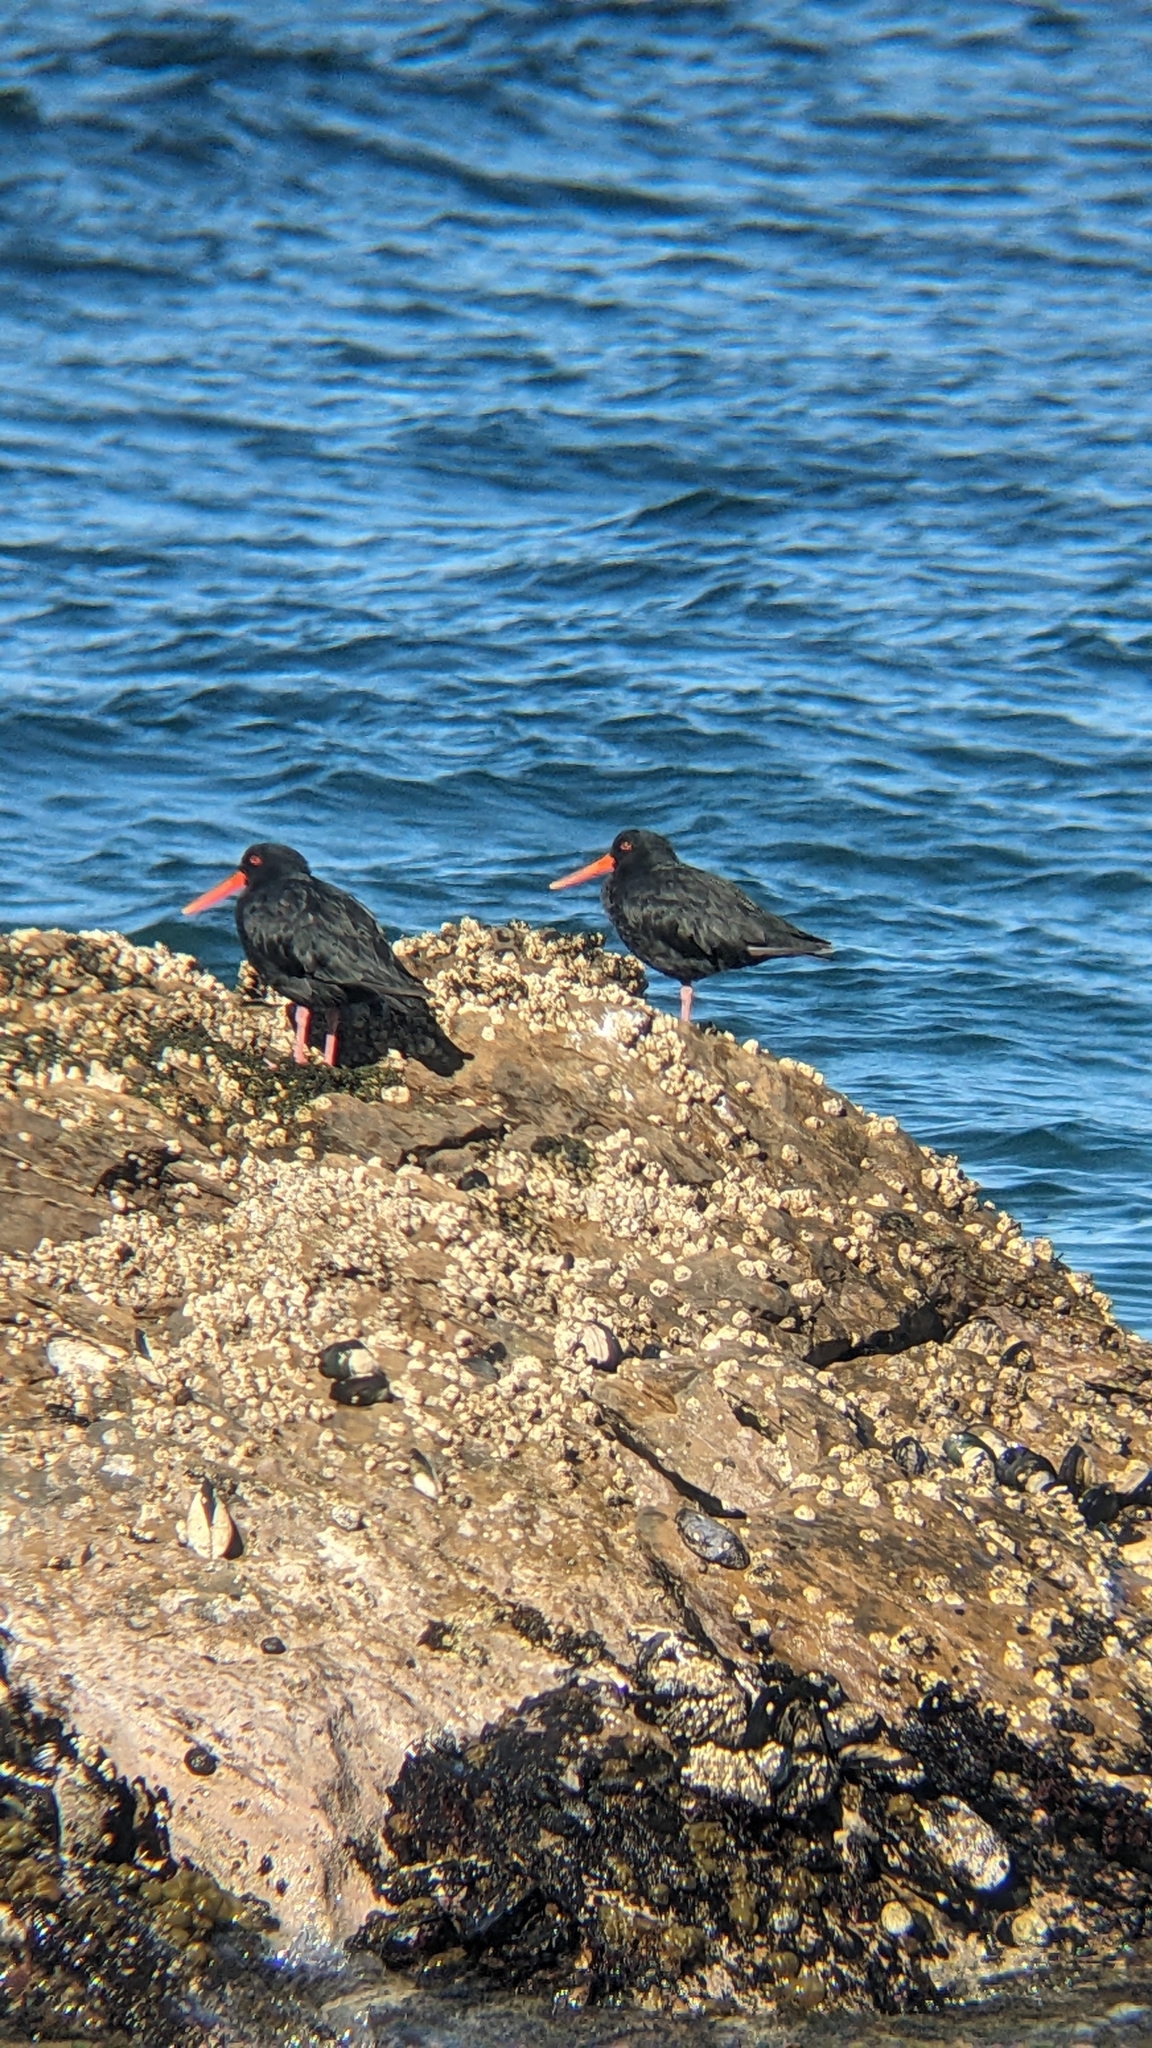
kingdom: Animalia
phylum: Chordata
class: Aves
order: Charadriiformes
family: Haematopodidae
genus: Haematopus
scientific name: Haematopus unicolor
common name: Variable oystercatcher
